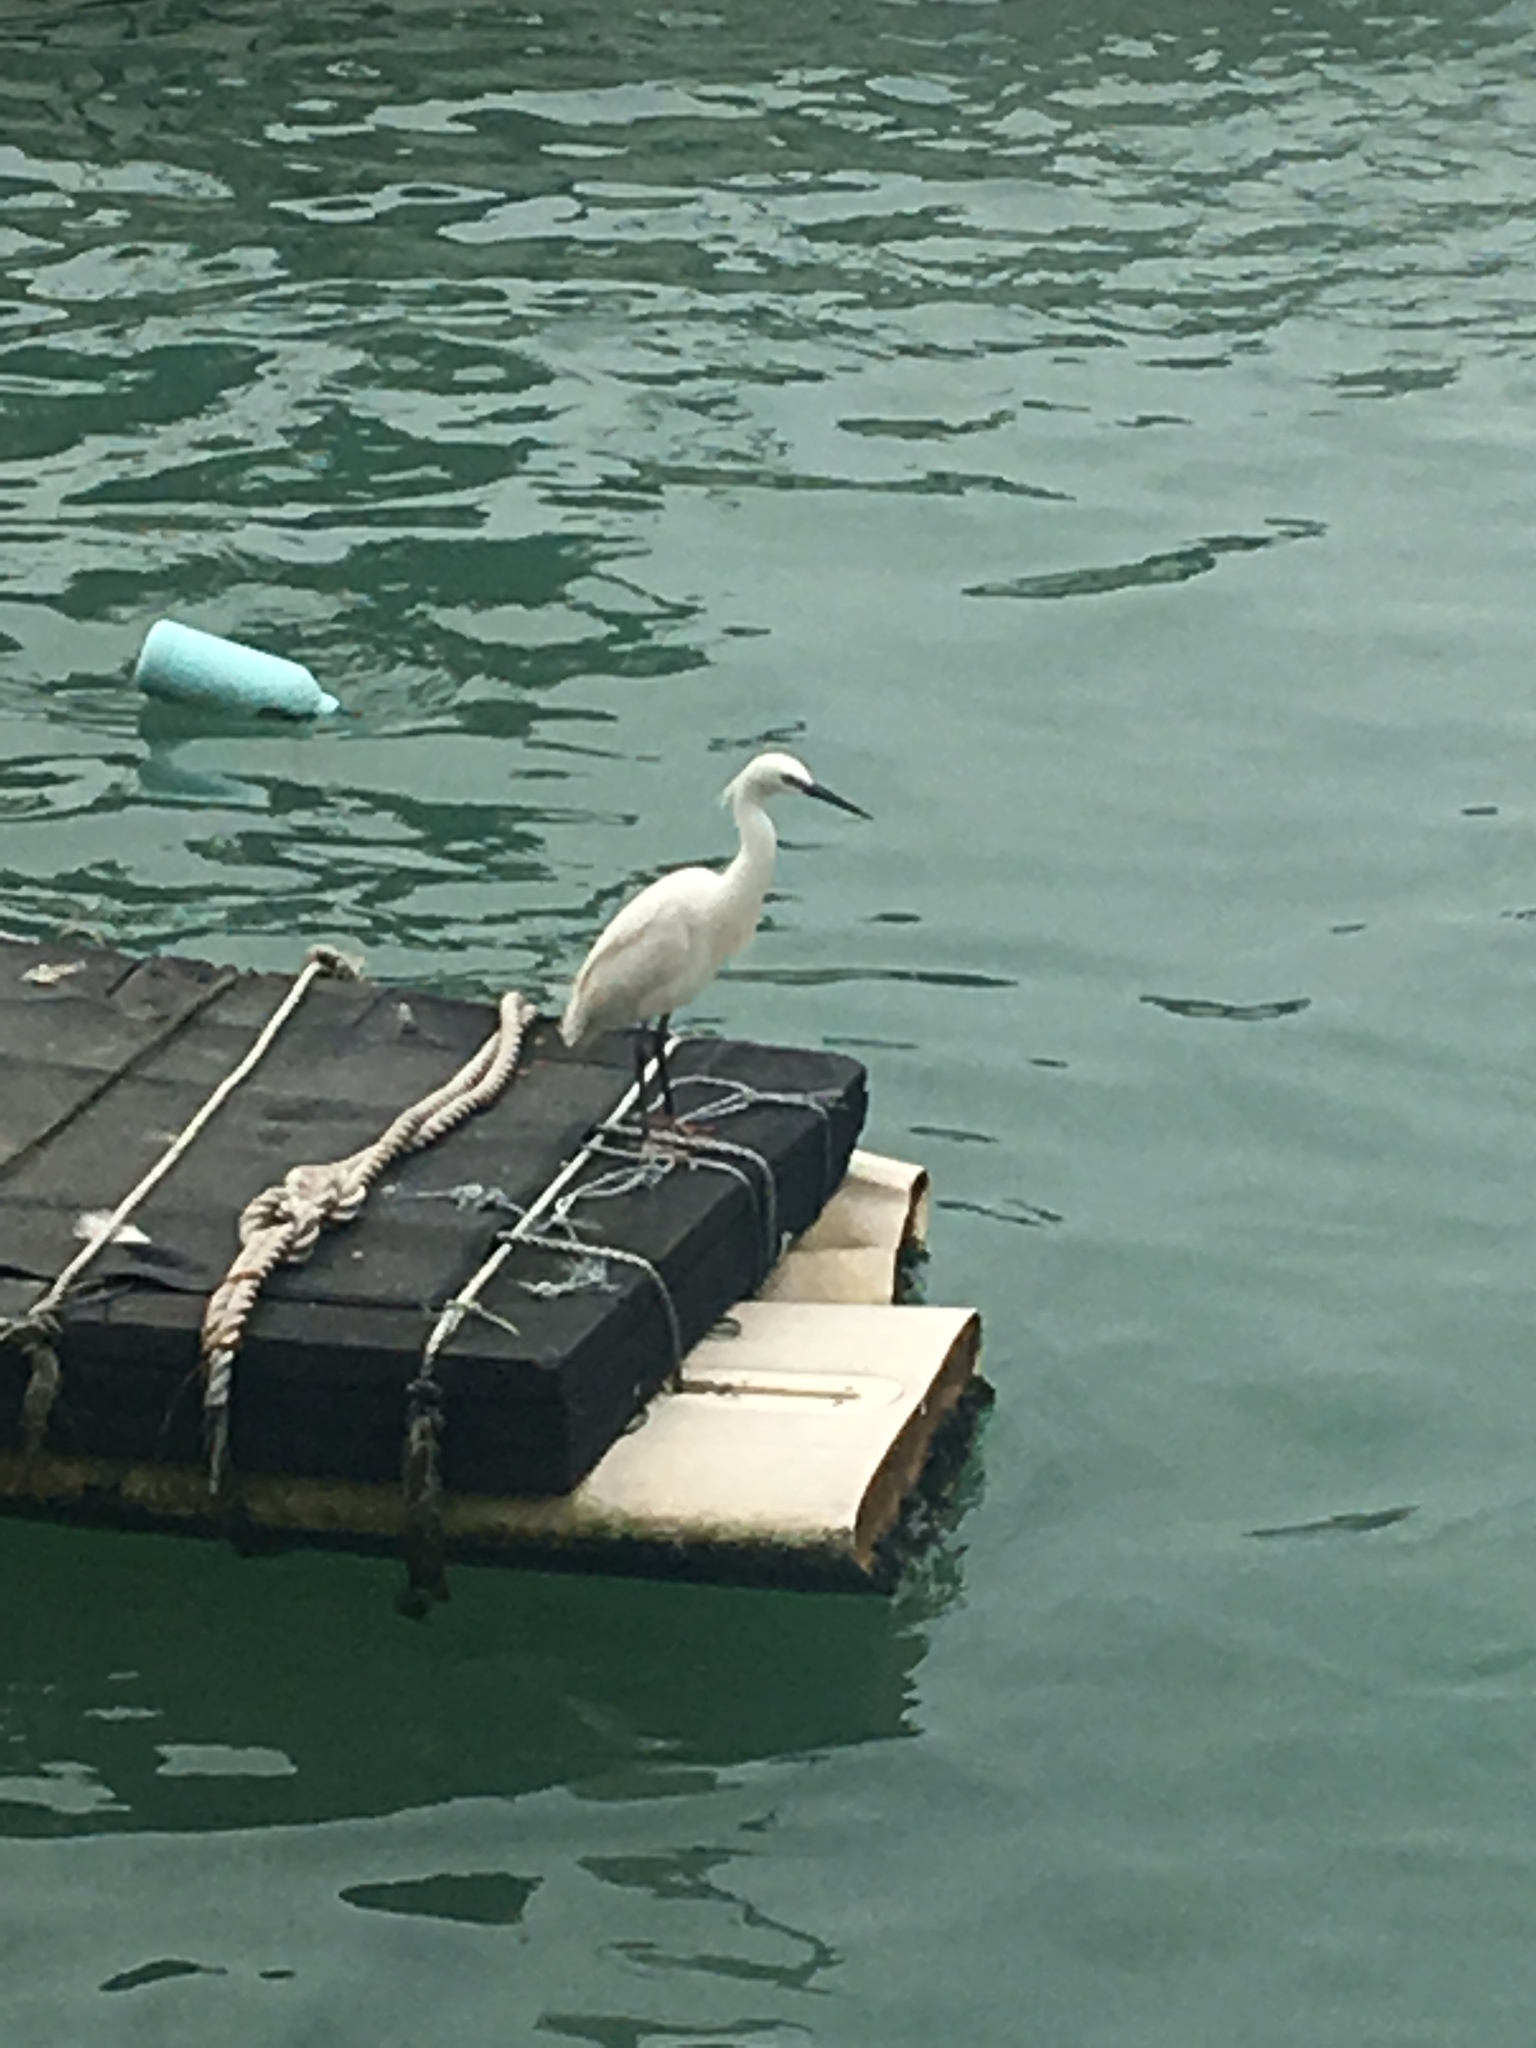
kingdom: Animalia
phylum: Chordata
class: Aves
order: Pelecaniformes
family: Ardeidae
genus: Egretta
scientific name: Egretta garzetta
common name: Little egret
